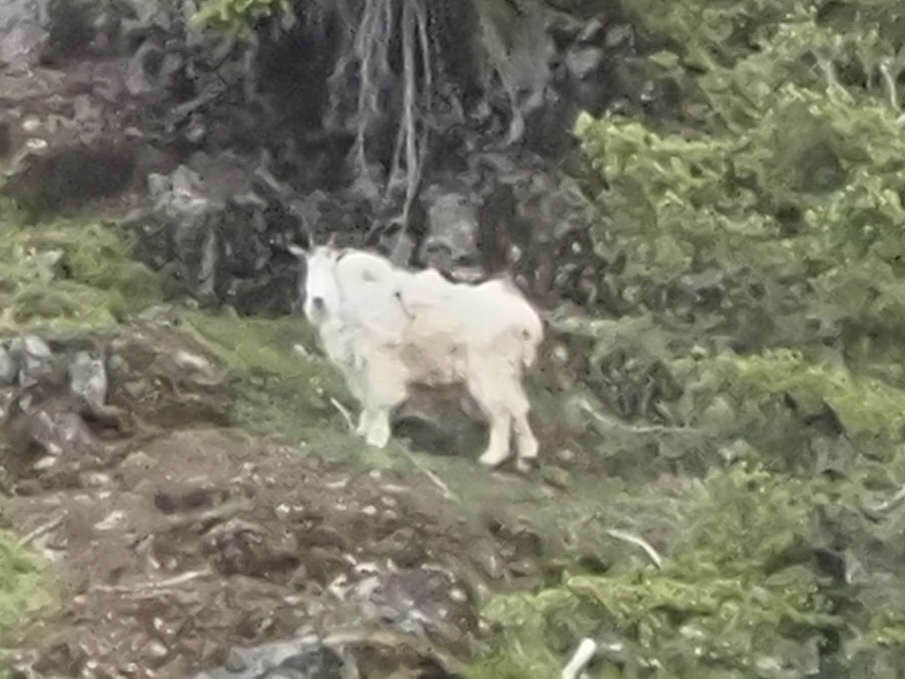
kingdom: Animalia
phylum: Chordata
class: Mammalia
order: Artiodactyla
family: Bovidae
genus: Oreamnos
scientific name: Oreamnos americanus
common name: Mountain goat
